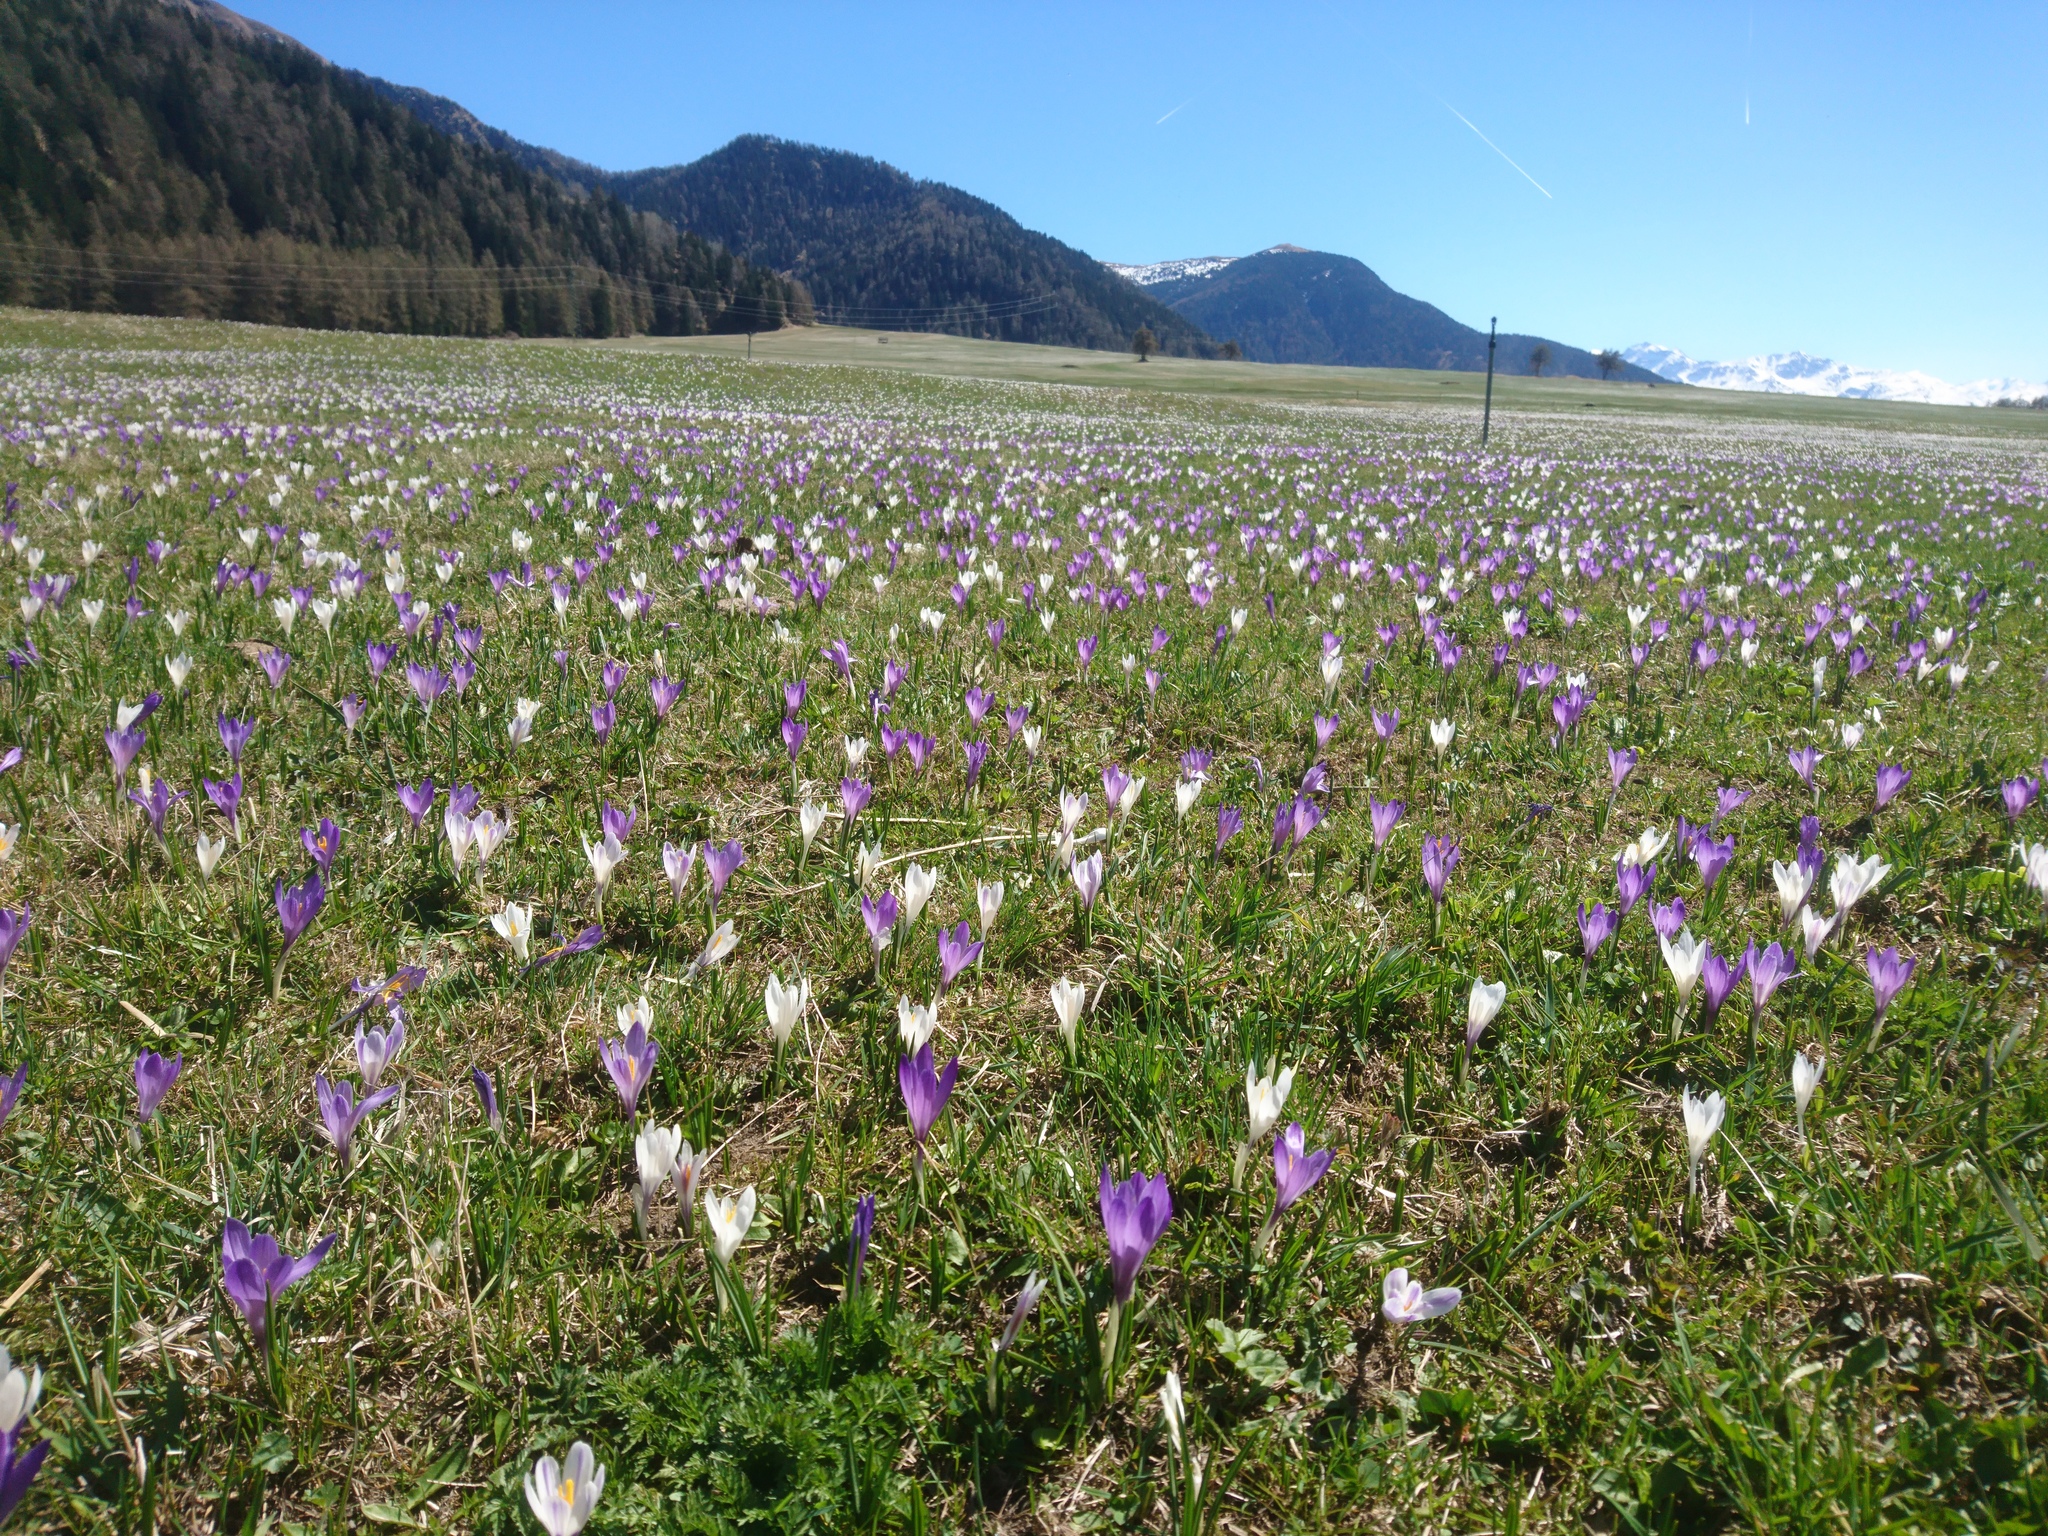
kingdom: Plantae
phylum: Tracheophyta
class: Liliopsida
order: Asparagales
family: Iridaceae
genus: Crocus
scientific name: Crocus vernus
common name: Spring crocus
